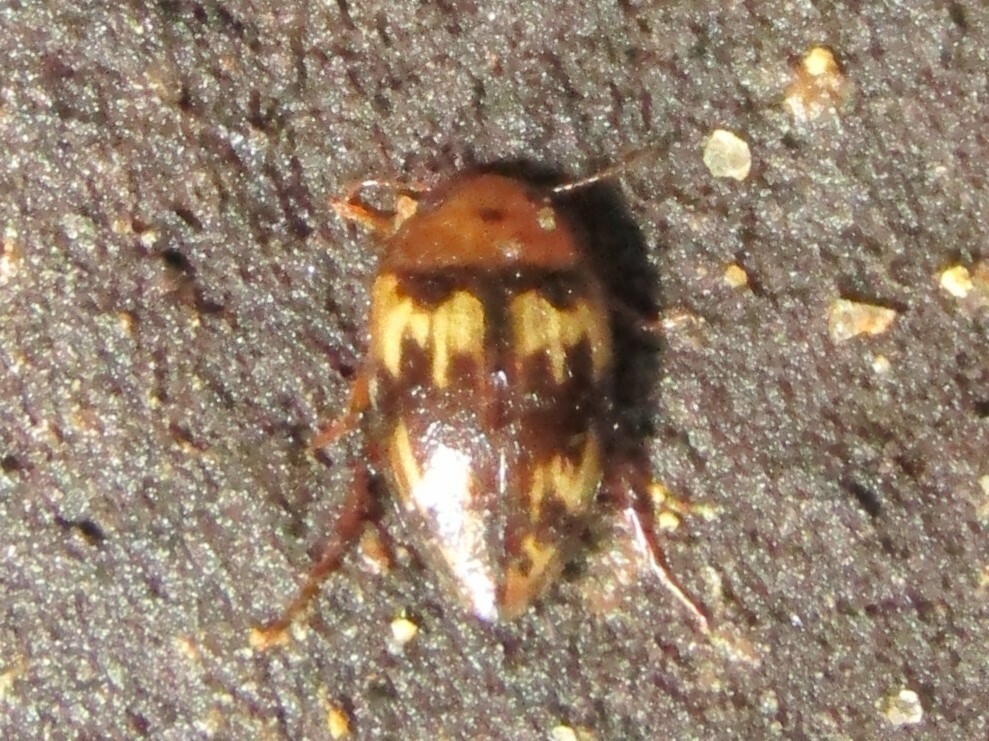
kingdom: Animalia
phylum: Arthropoda
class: Insecta
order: Coleoptera
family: Dytiscidae
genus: Neoporus
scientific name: Neoporus
